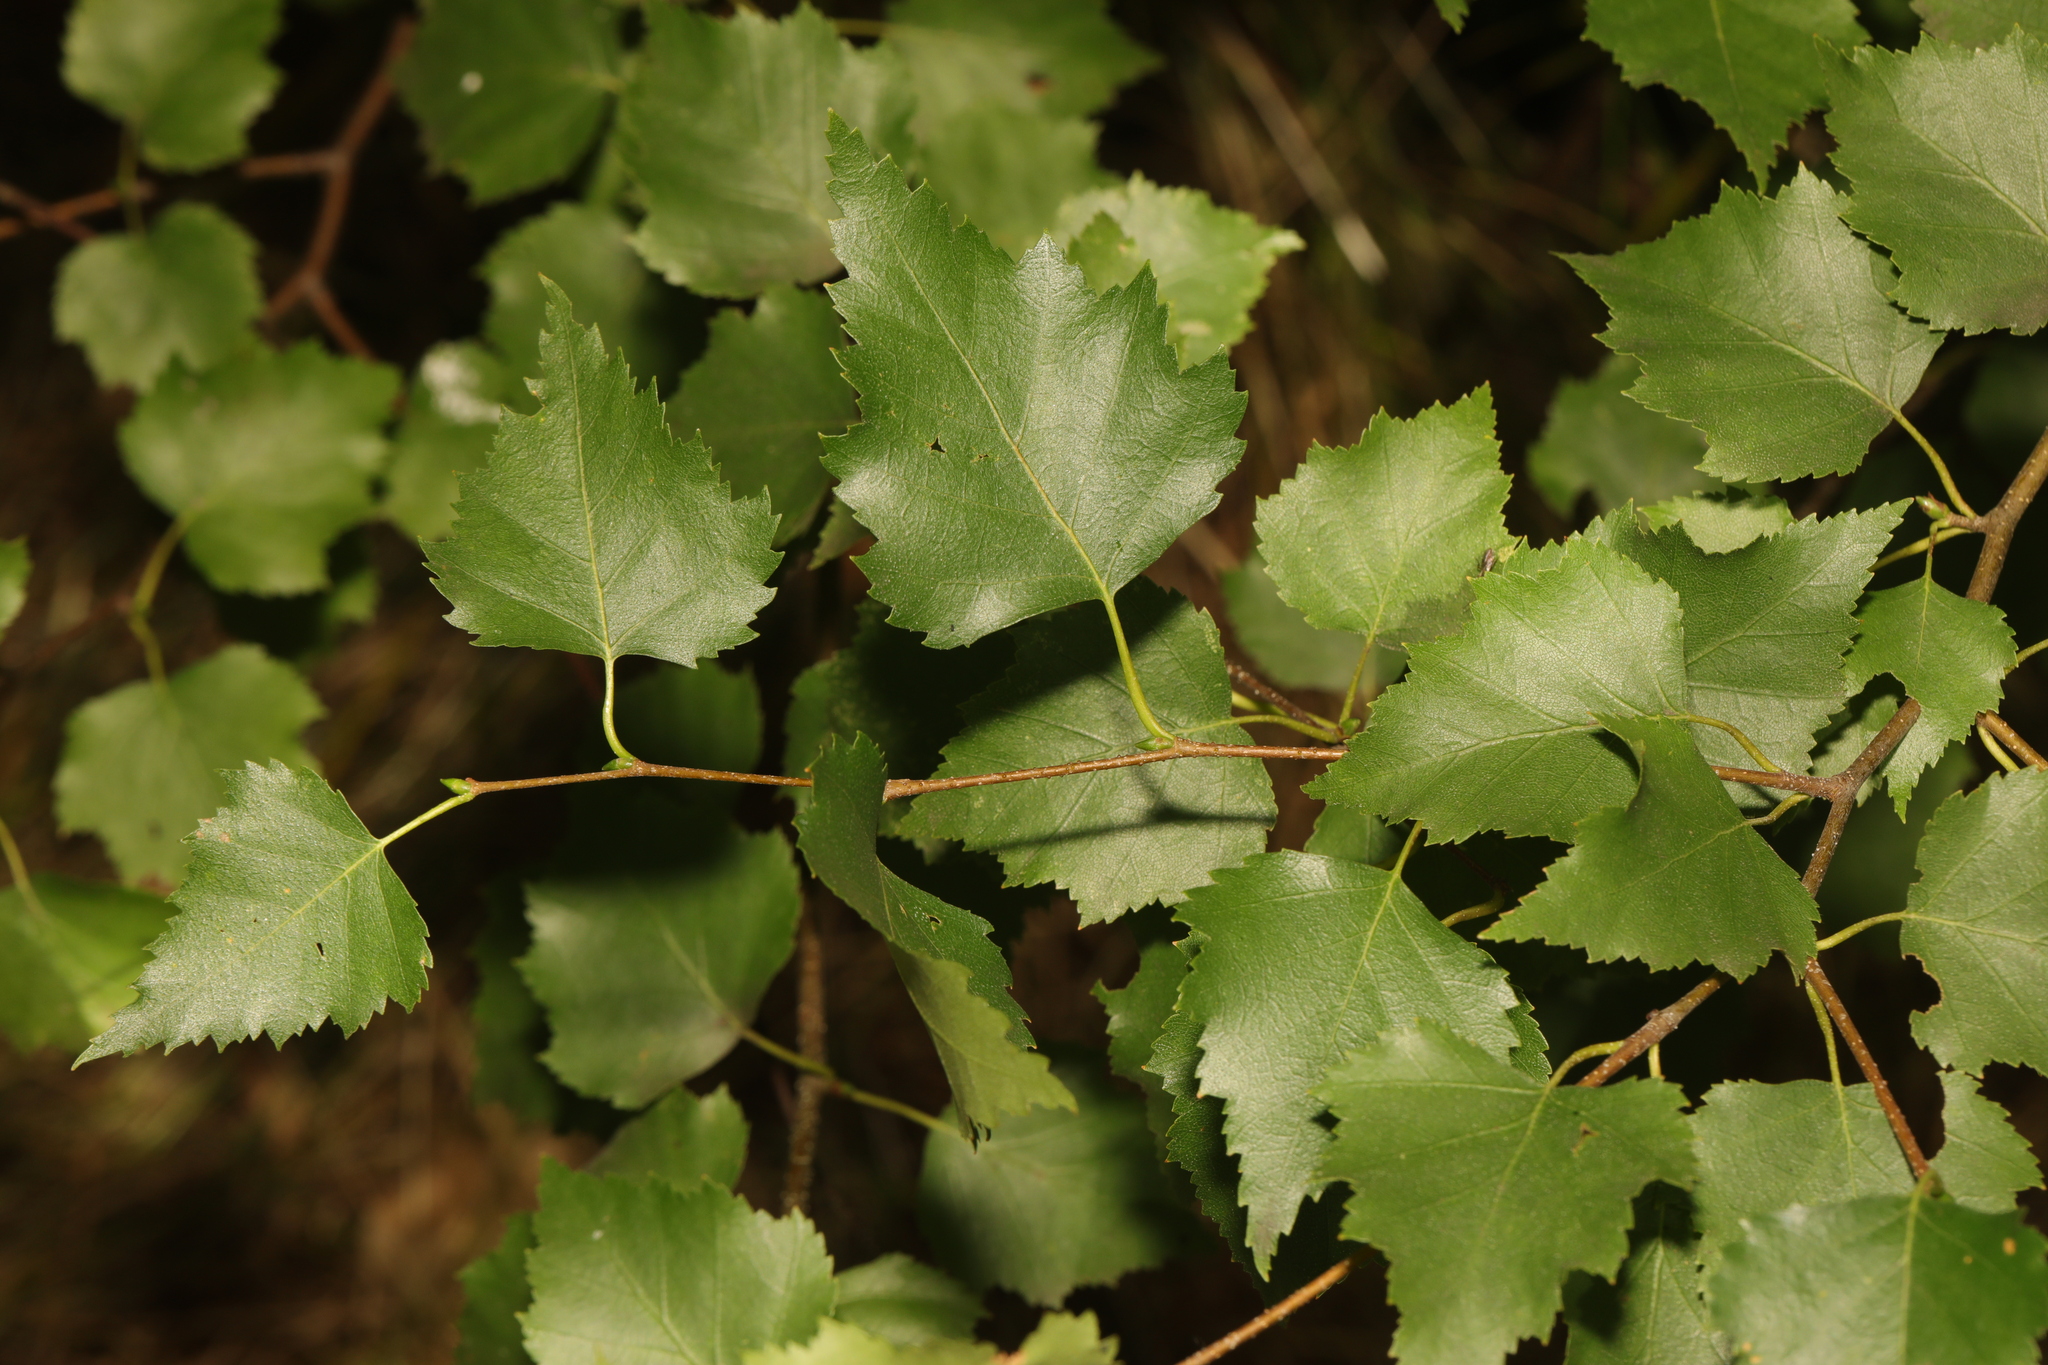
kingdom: Plantae
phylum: Tracheophyta
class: Magnoliopsida
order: Fagales
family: Betulaceae
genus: Betula
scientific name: Betula pendula
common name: Silver birch
